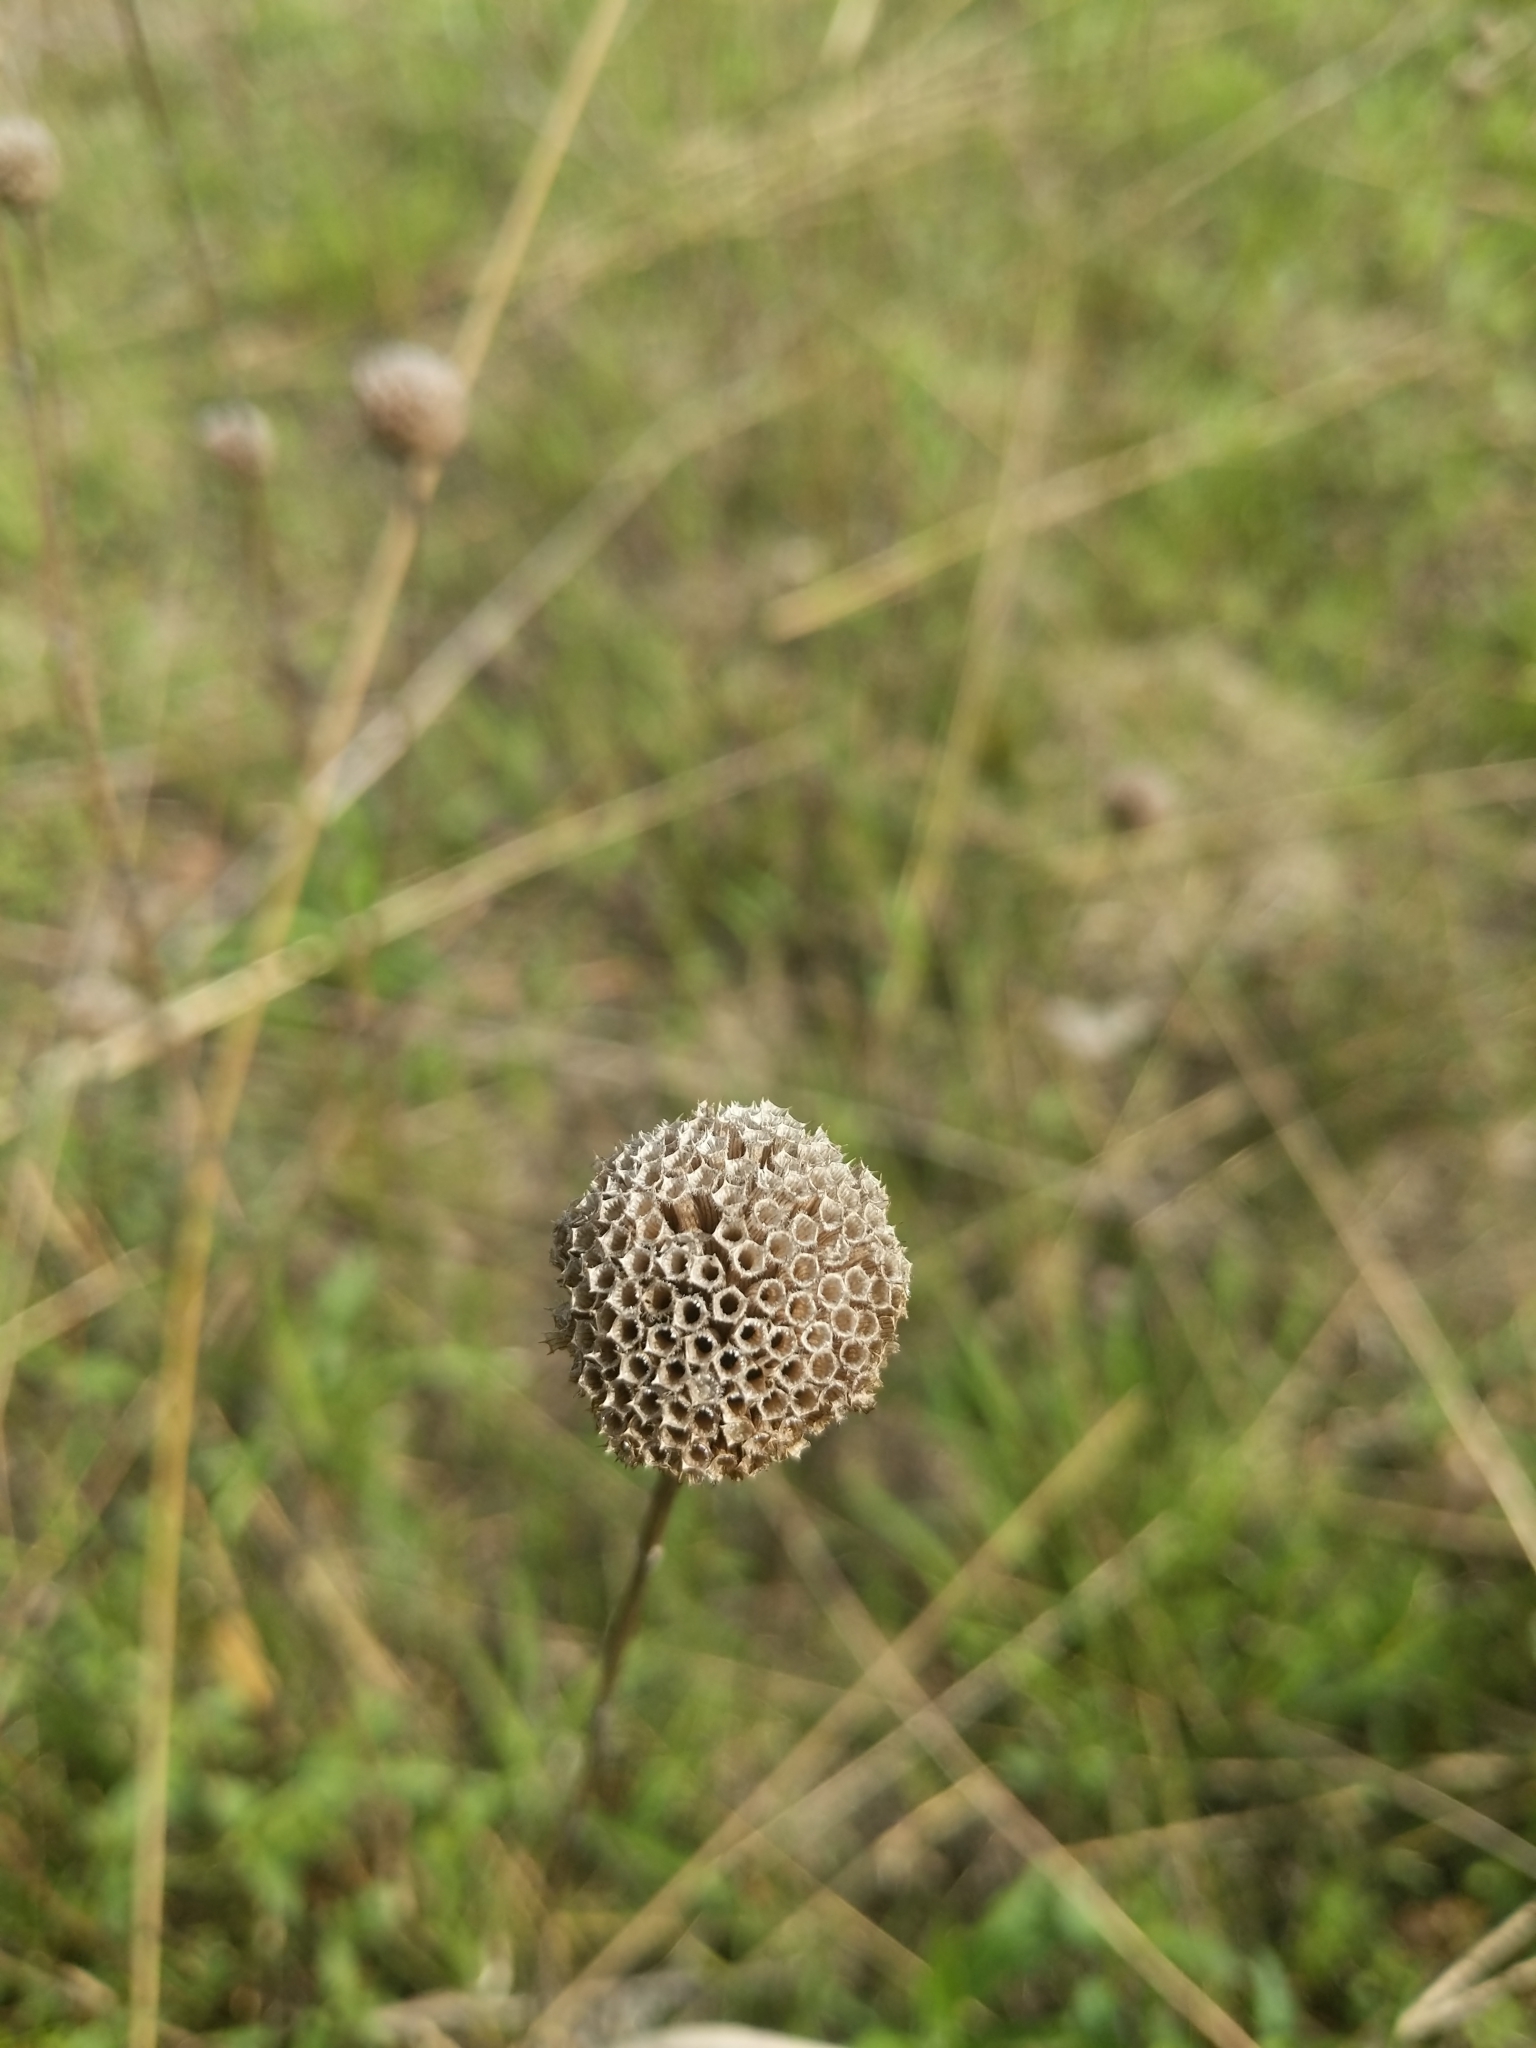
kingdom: Plantae
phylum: Tracheophyta
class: Magnoliopsida
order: Lamiales
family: Lamiaceae
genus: Monarda
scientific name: Monarda fistulosa
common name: Purple beebalm
